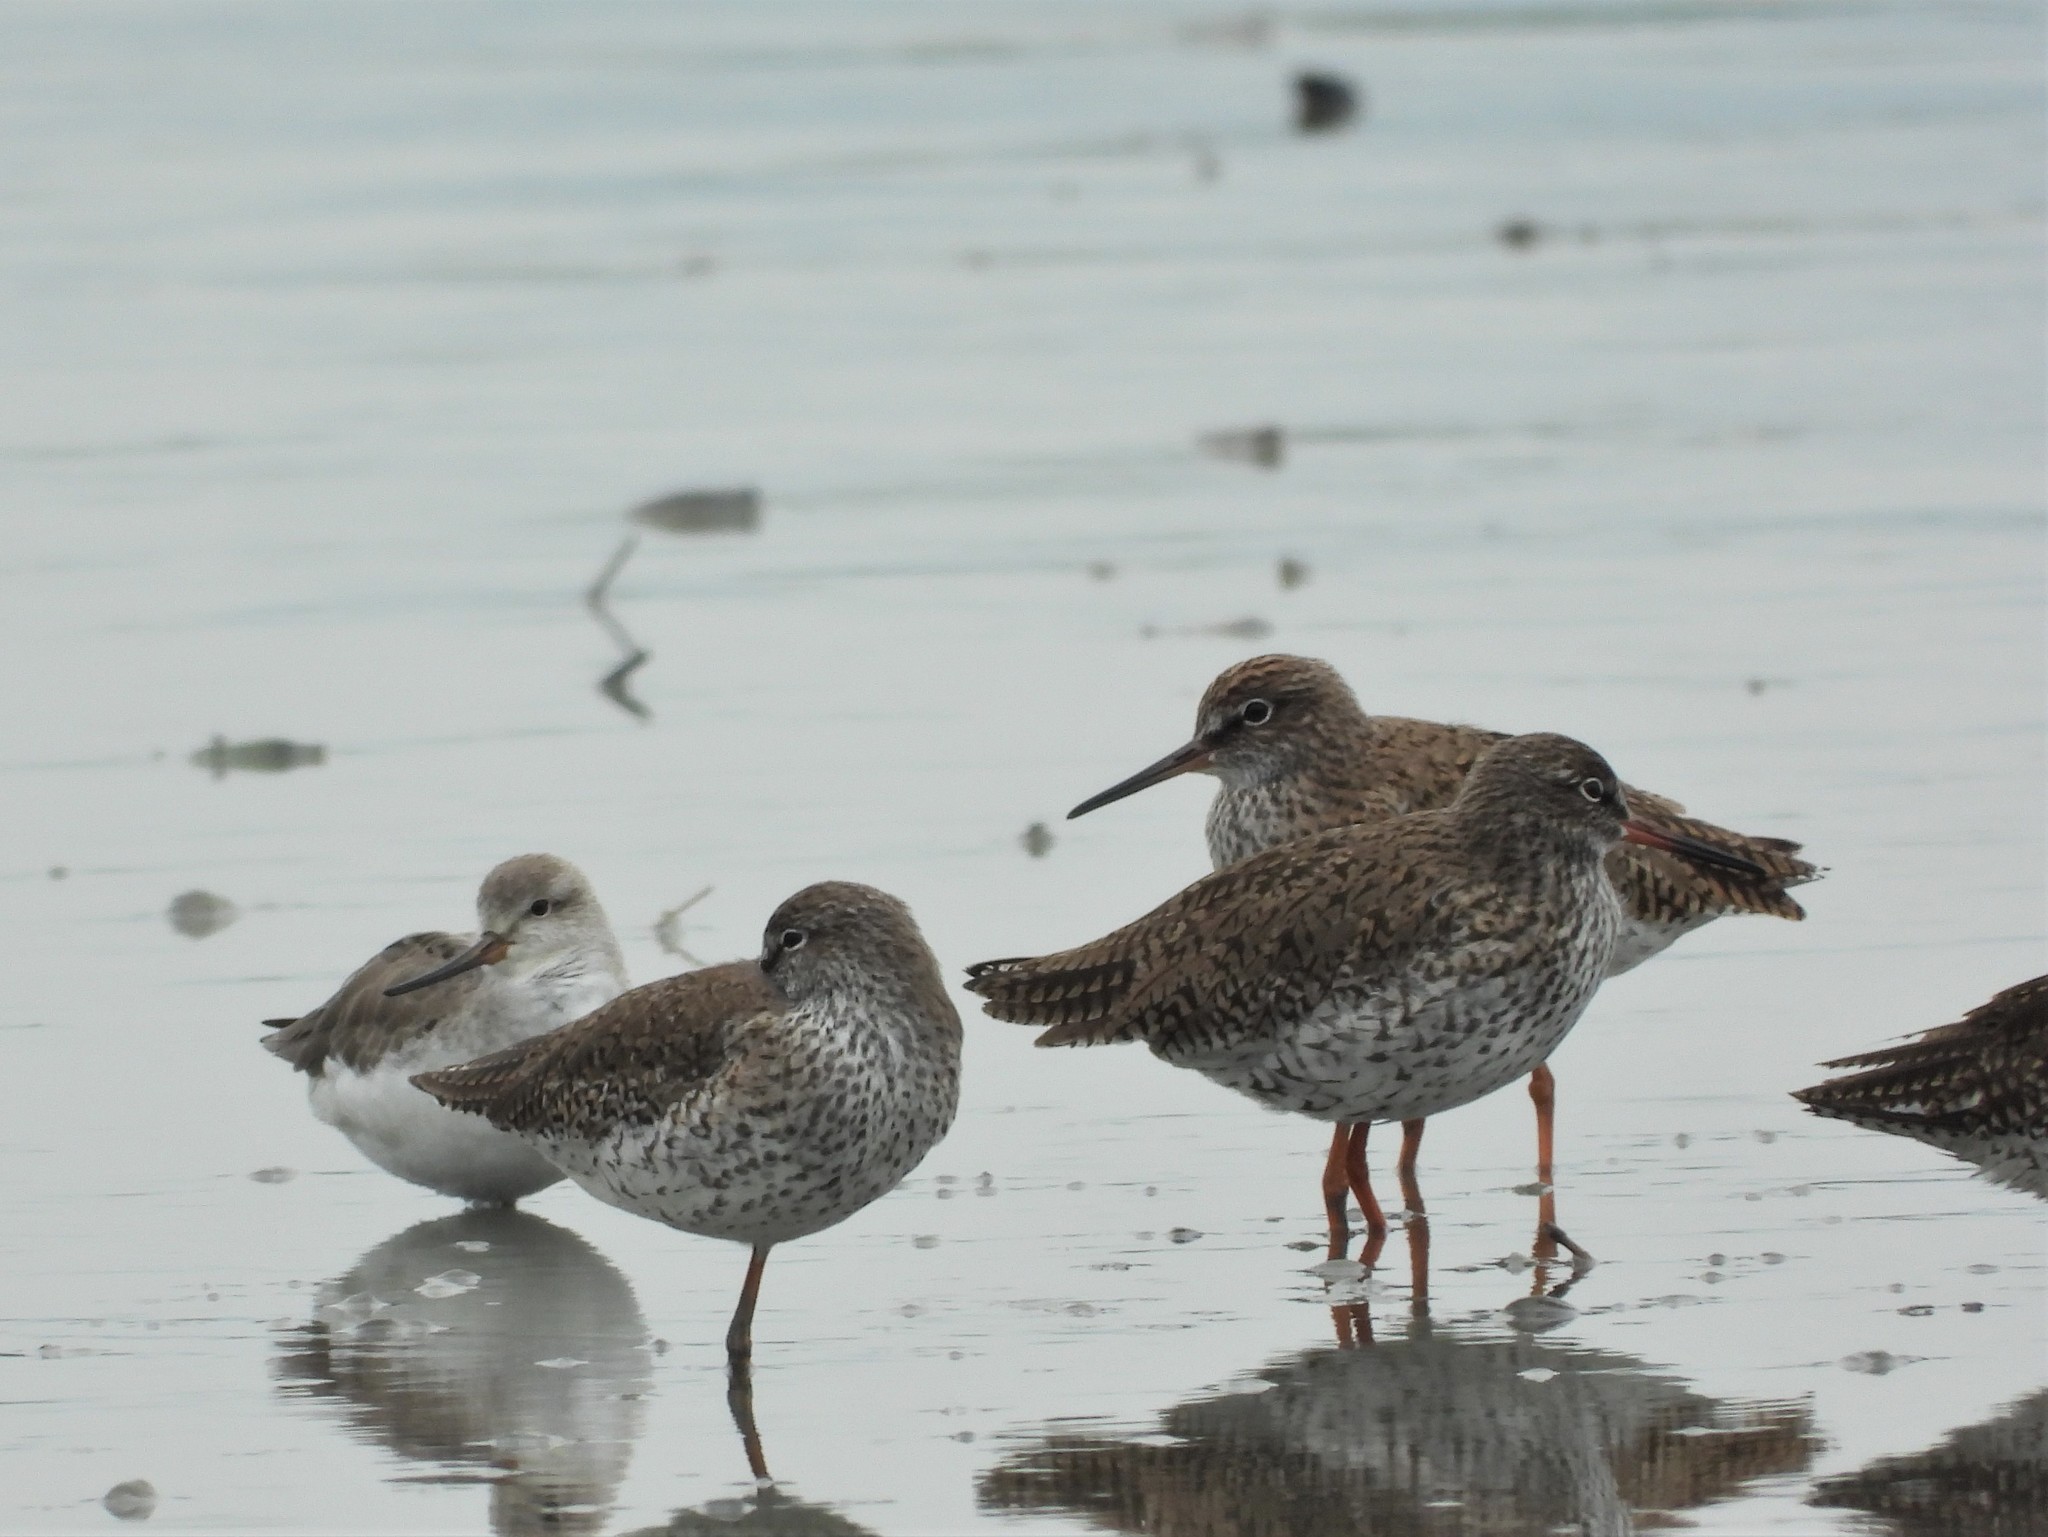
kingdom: Animalia
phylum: Chordata
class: Aves
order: Charadriiformes
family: Scolopacidae
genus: Tringa
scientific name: Tringa totanus
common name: Common redshank
